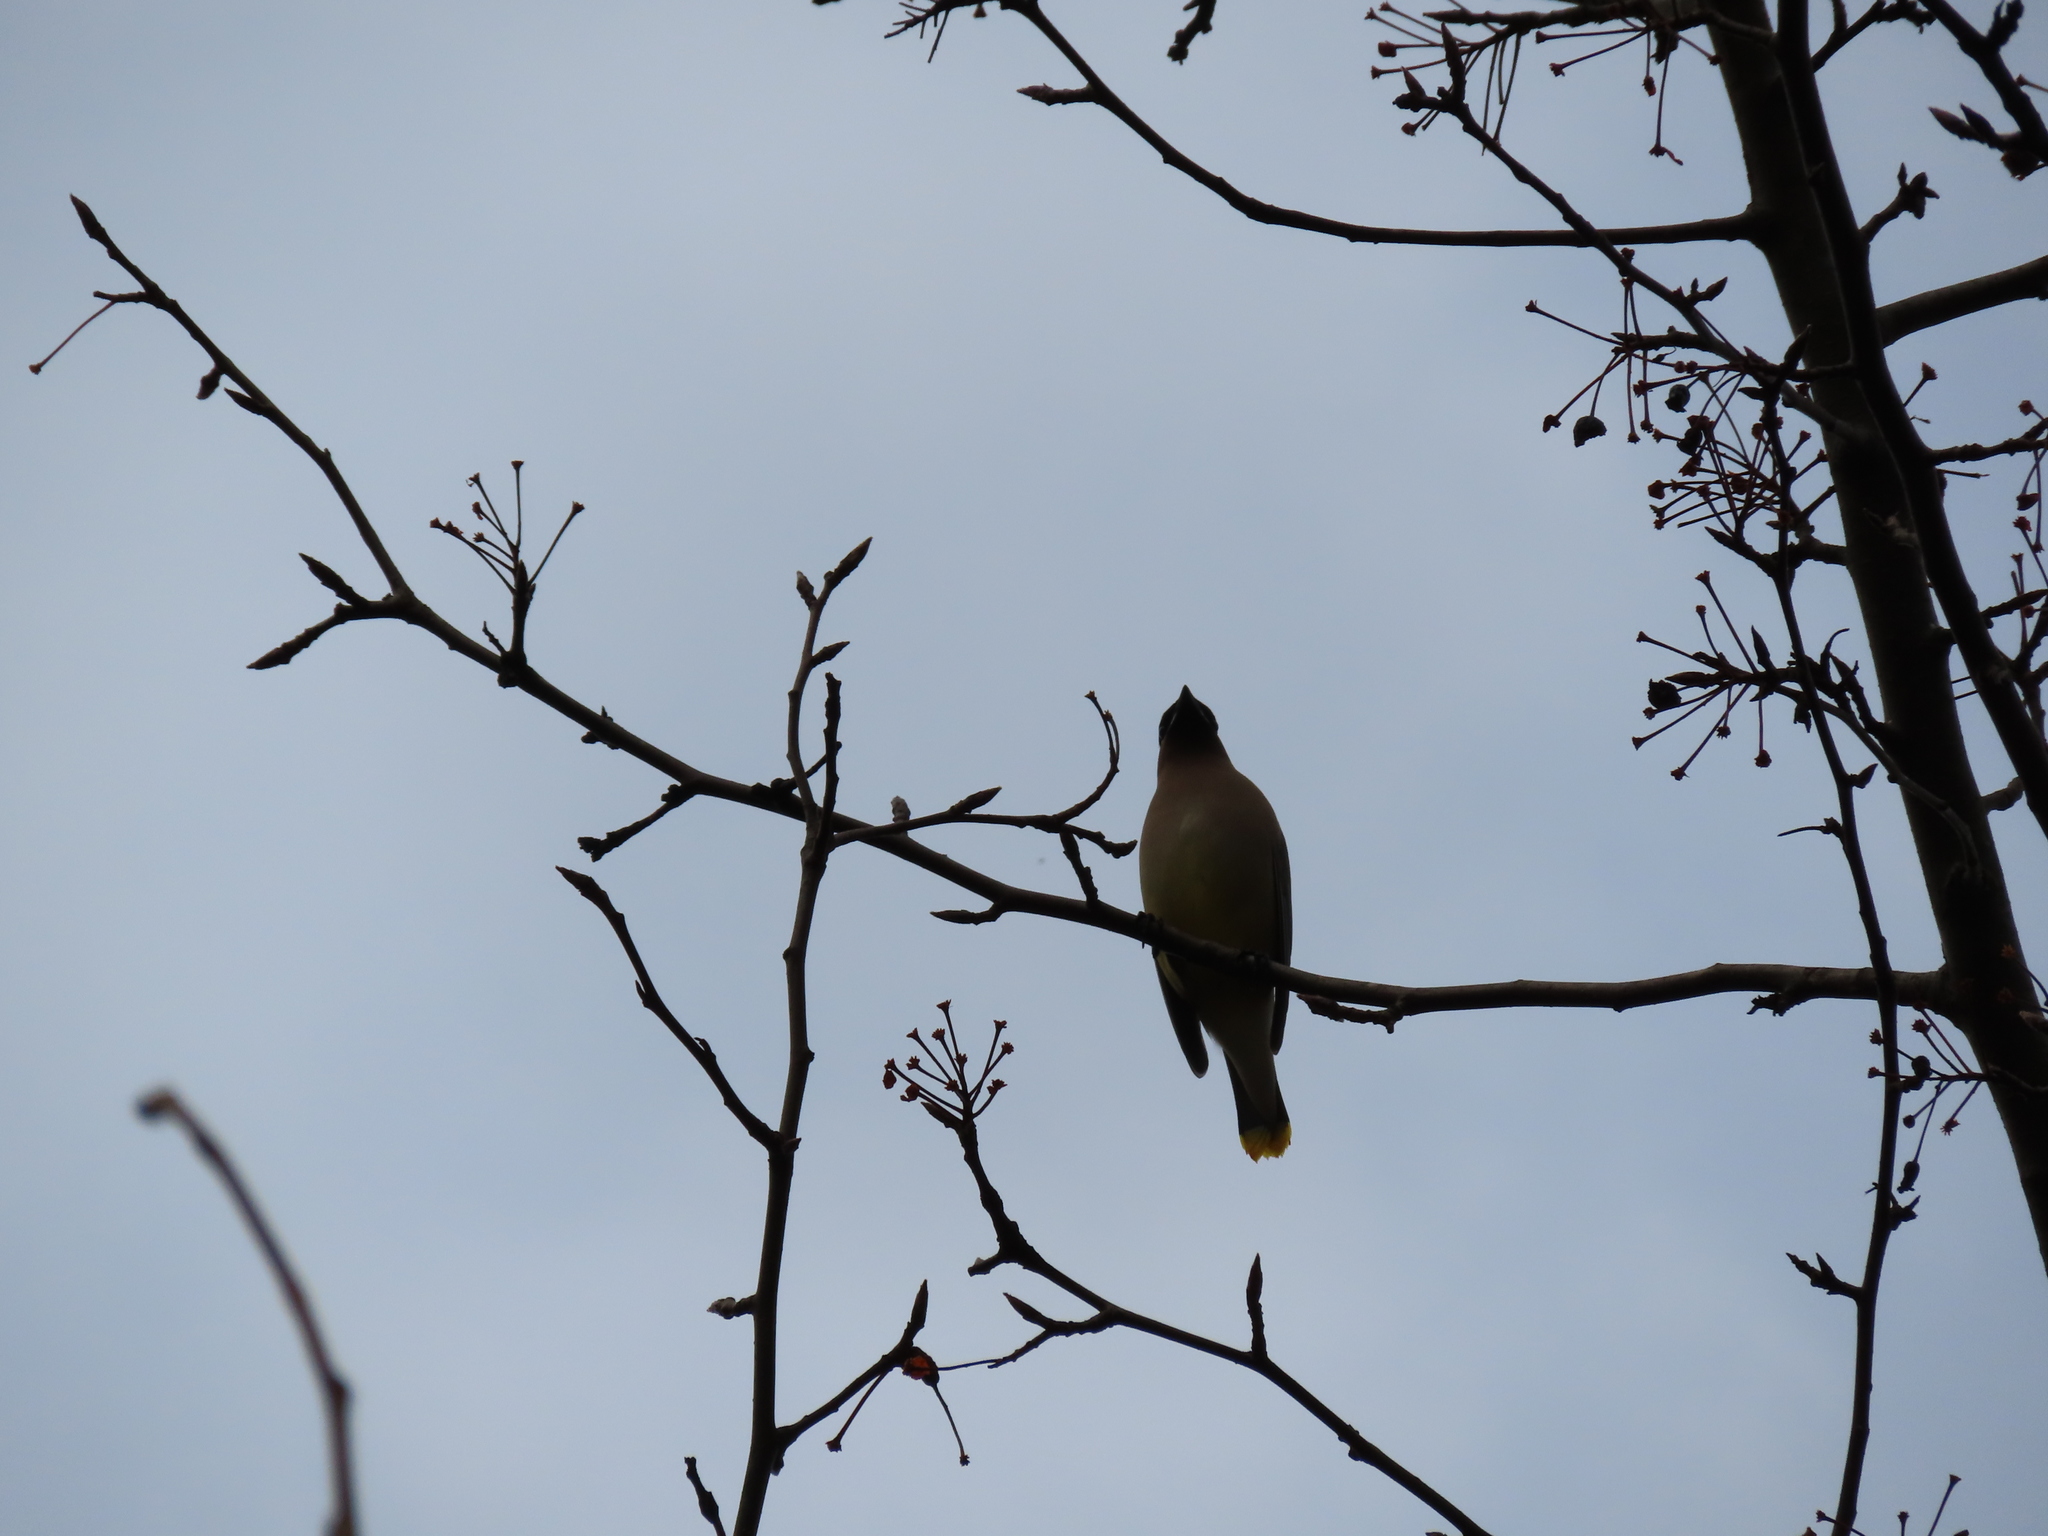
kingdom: Animalia
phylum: Chordata
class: Aves
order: Passeriformes
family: Bombycillidae
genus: Bombycilla
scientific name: Bombycilla cedrorum
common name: Cedar waxwing
